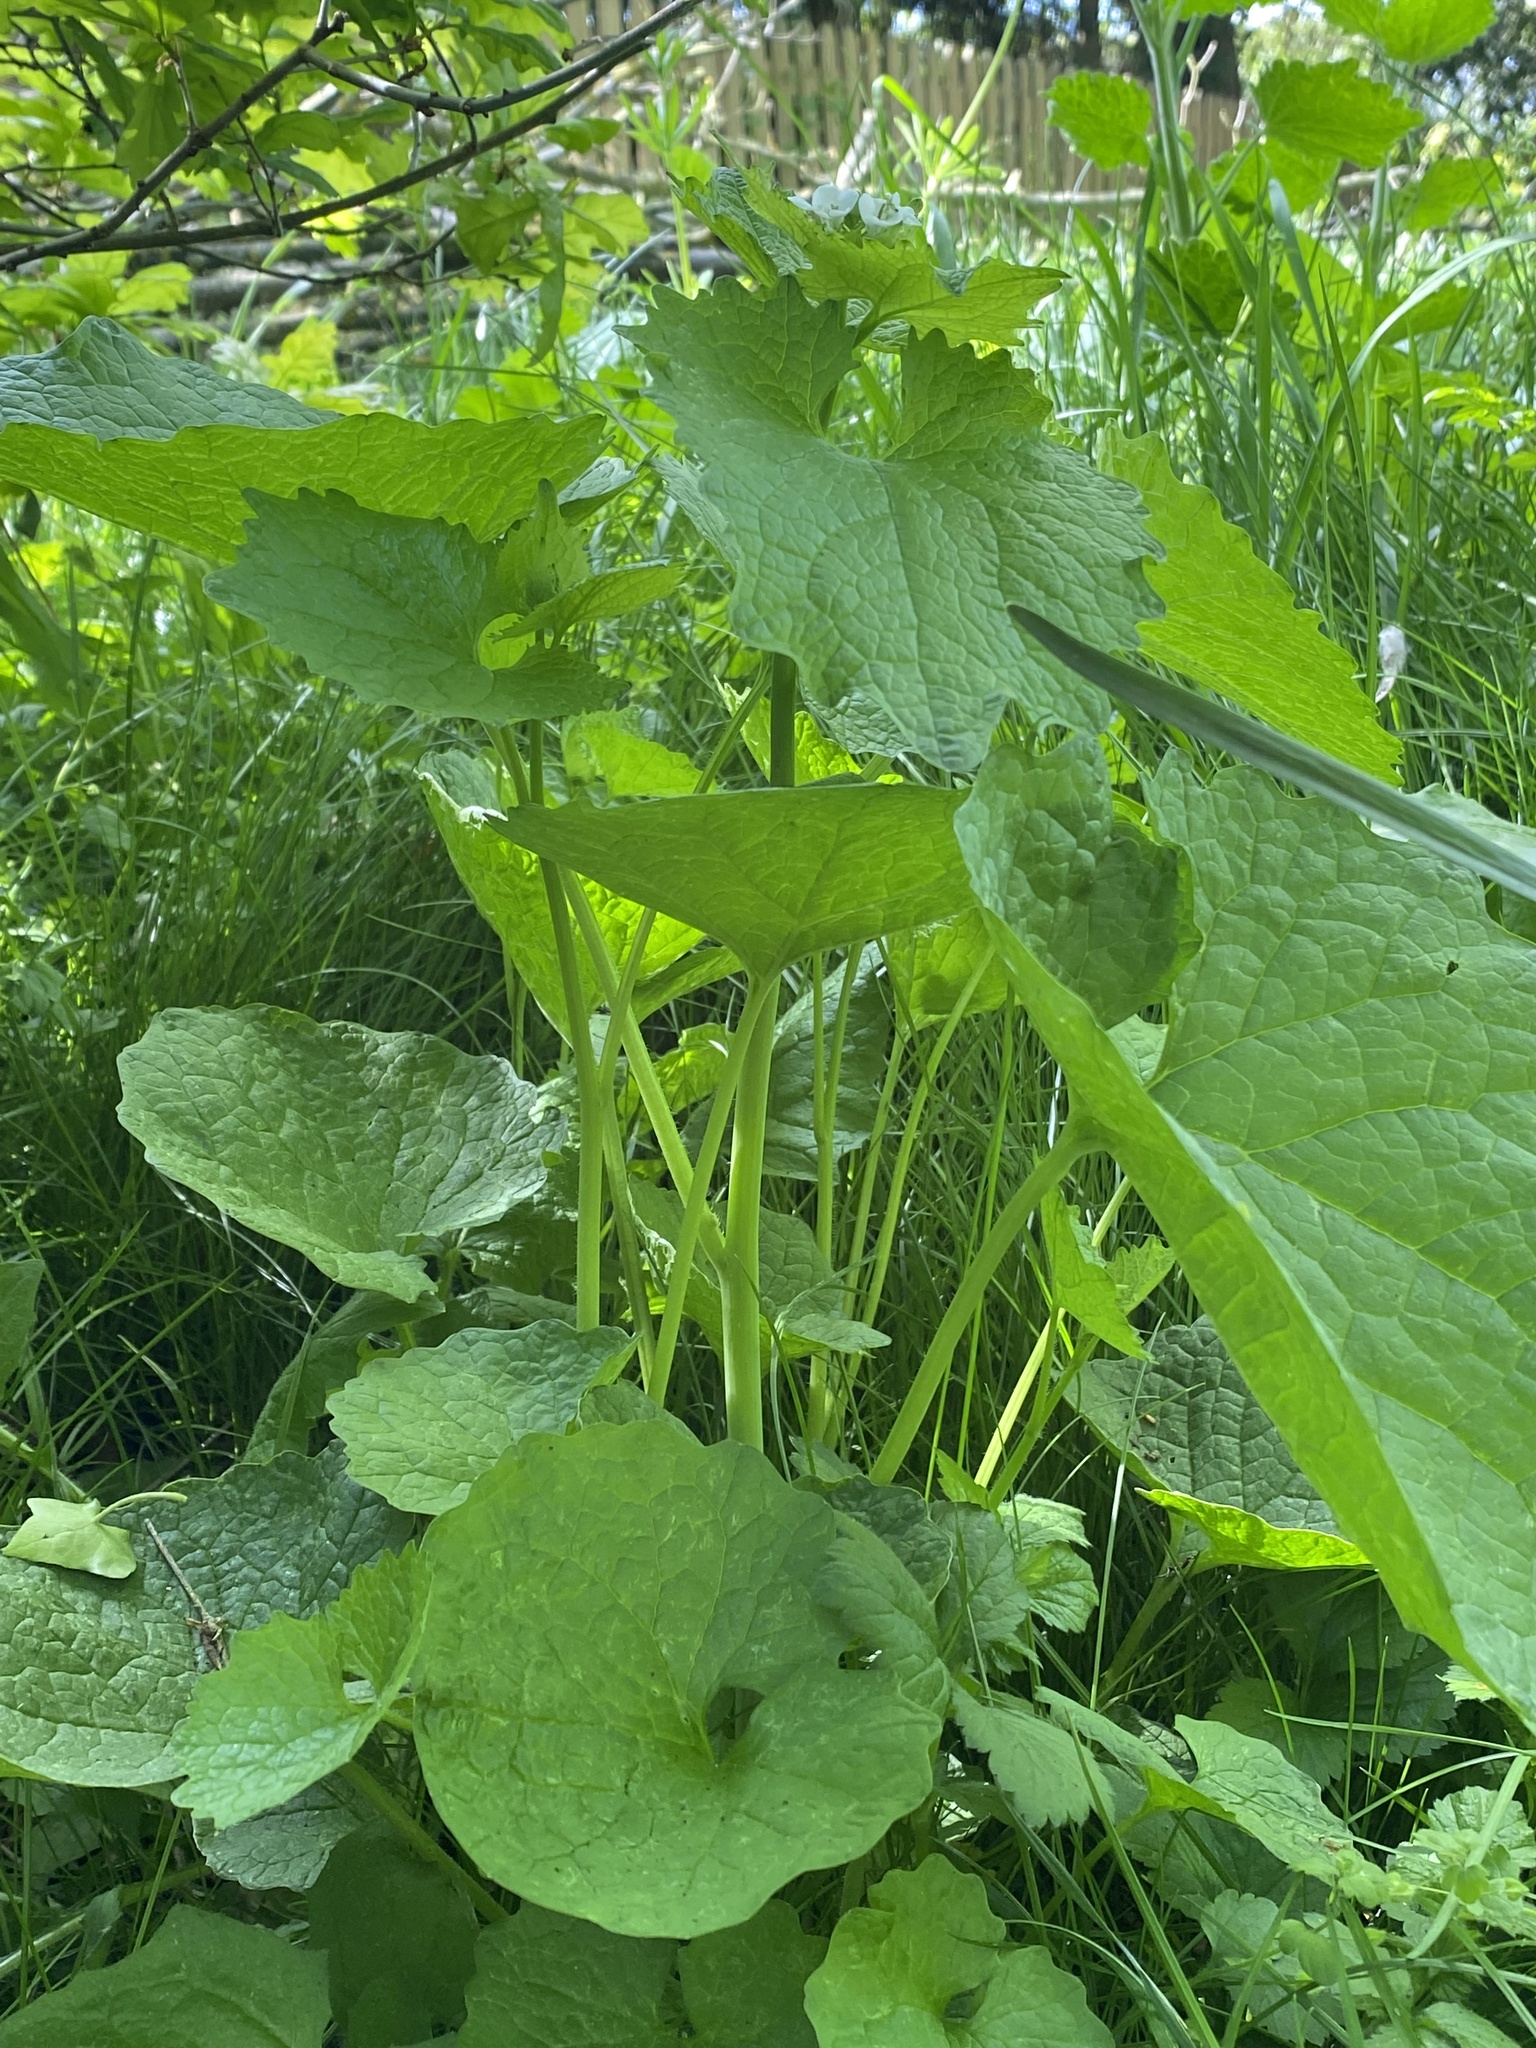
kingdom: Plantae
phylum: Tracheophyta
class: Magnoliopsida
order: Brassicales
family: Brassicaceae
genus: Alliaria
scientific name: Alliaria petiolata
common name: Garlic mustard
